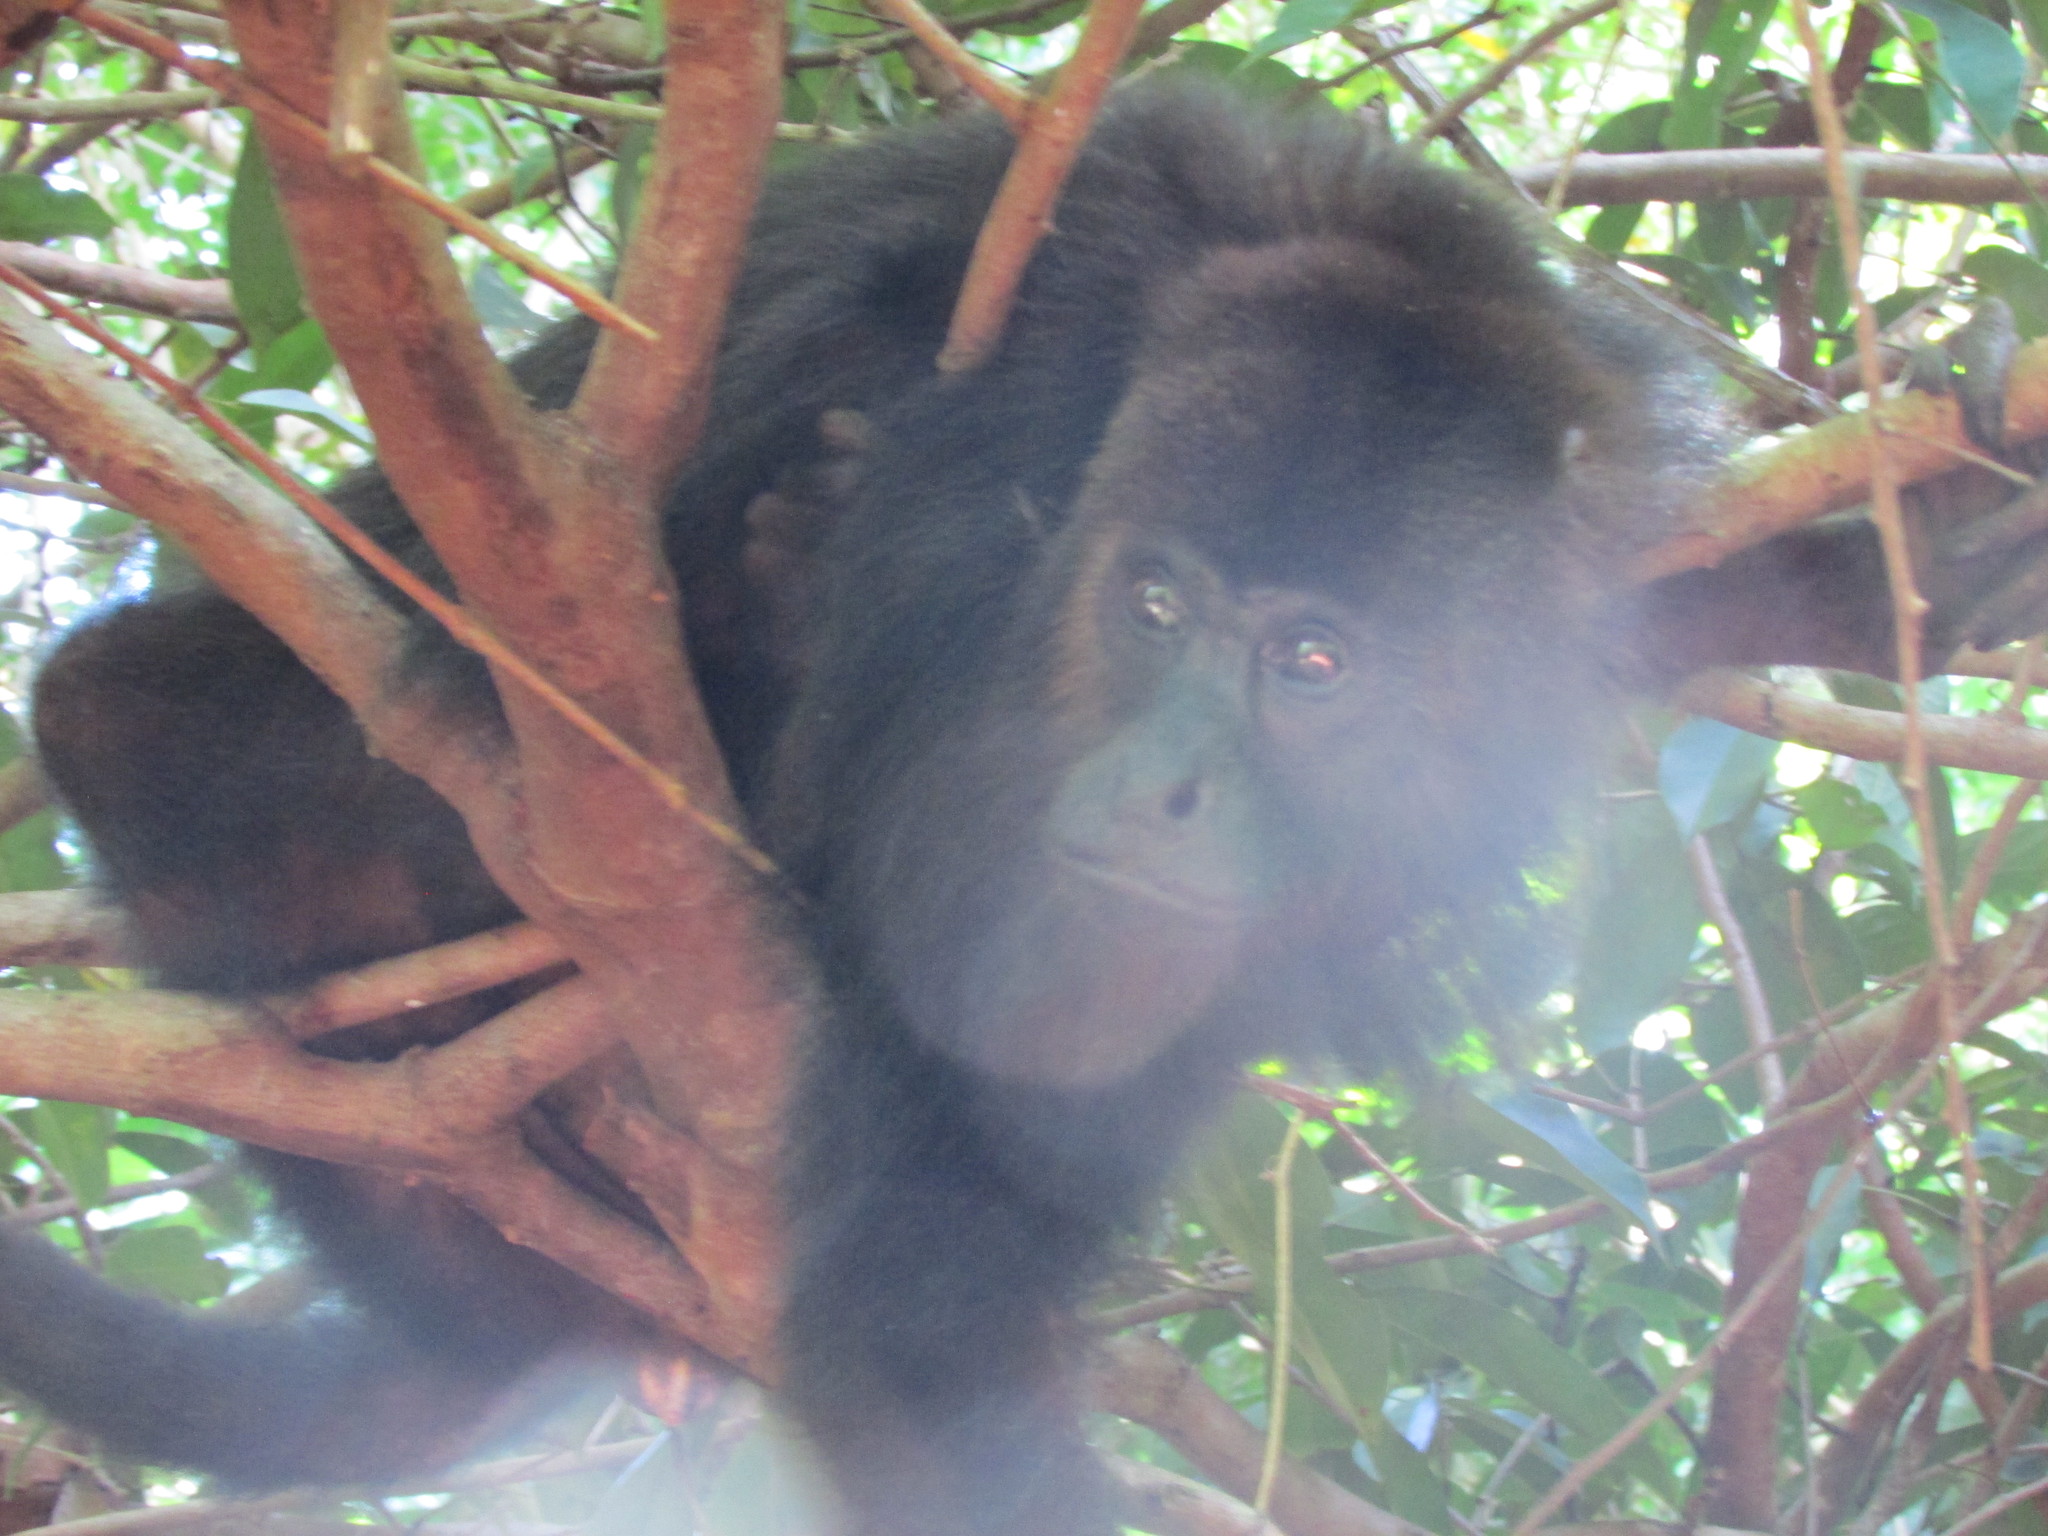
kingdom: Animalia
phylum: Chordata
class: Mammalia
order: Primates
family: Atelidae
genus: Alouatta
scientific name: Alouatta pigra
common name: Guatemalan black howler
